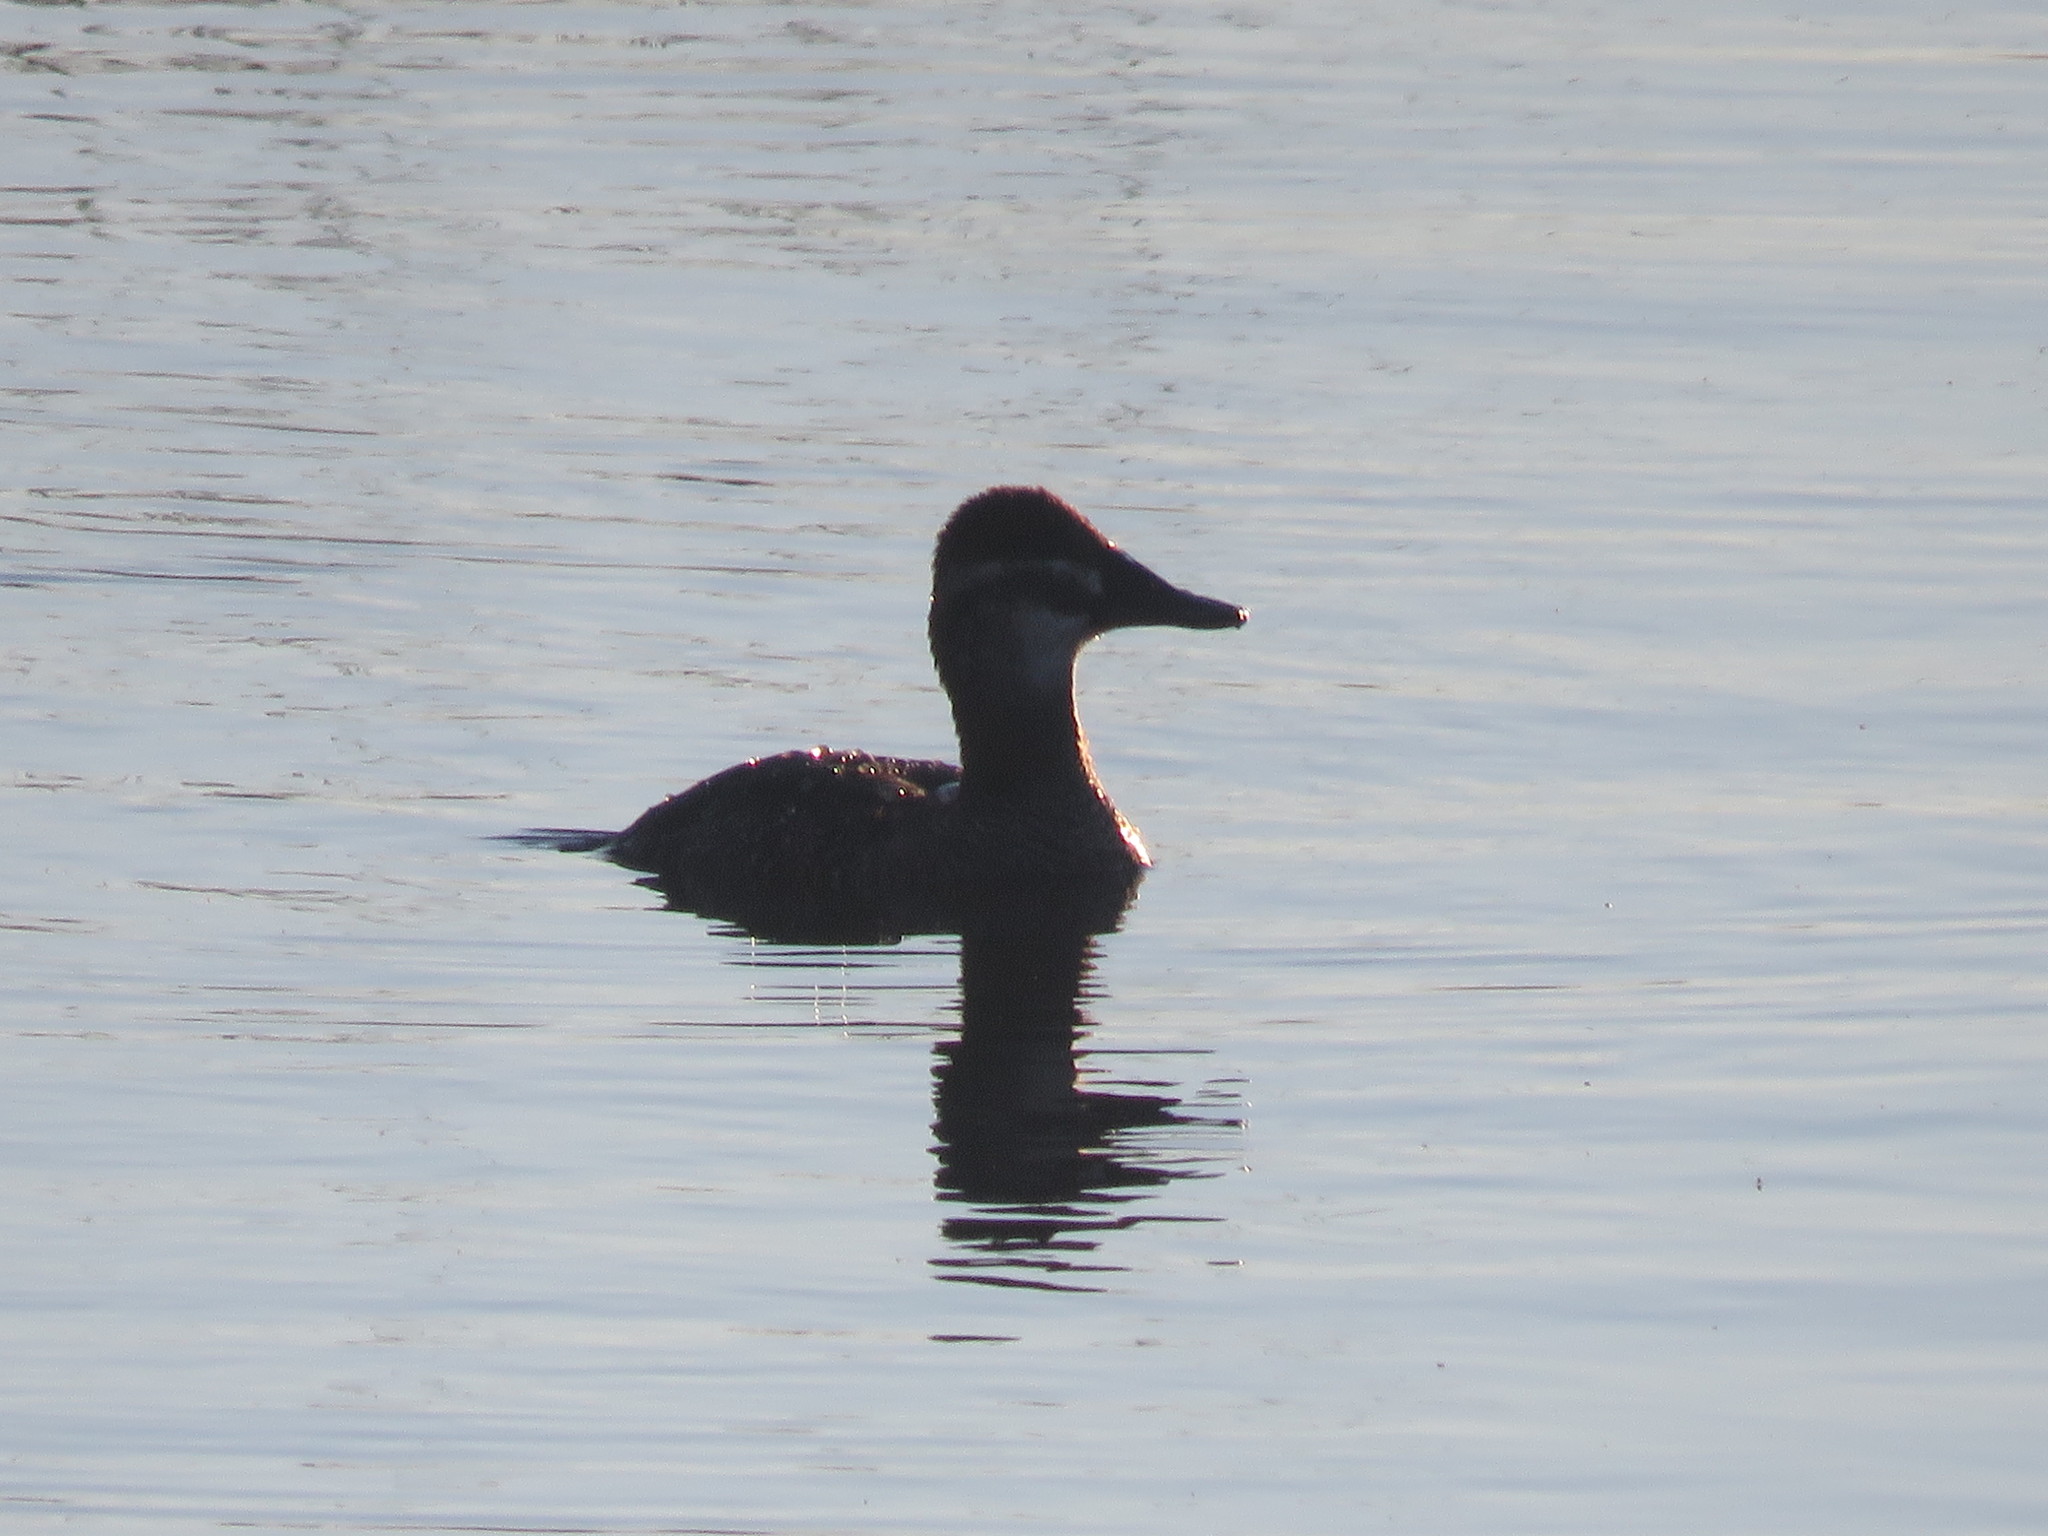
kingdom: Animalia
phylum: Chordata
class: Aves
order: Anseriformes
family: Anatidae
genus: Oxyura
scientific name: Oxyura vittata
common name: Lake duck
